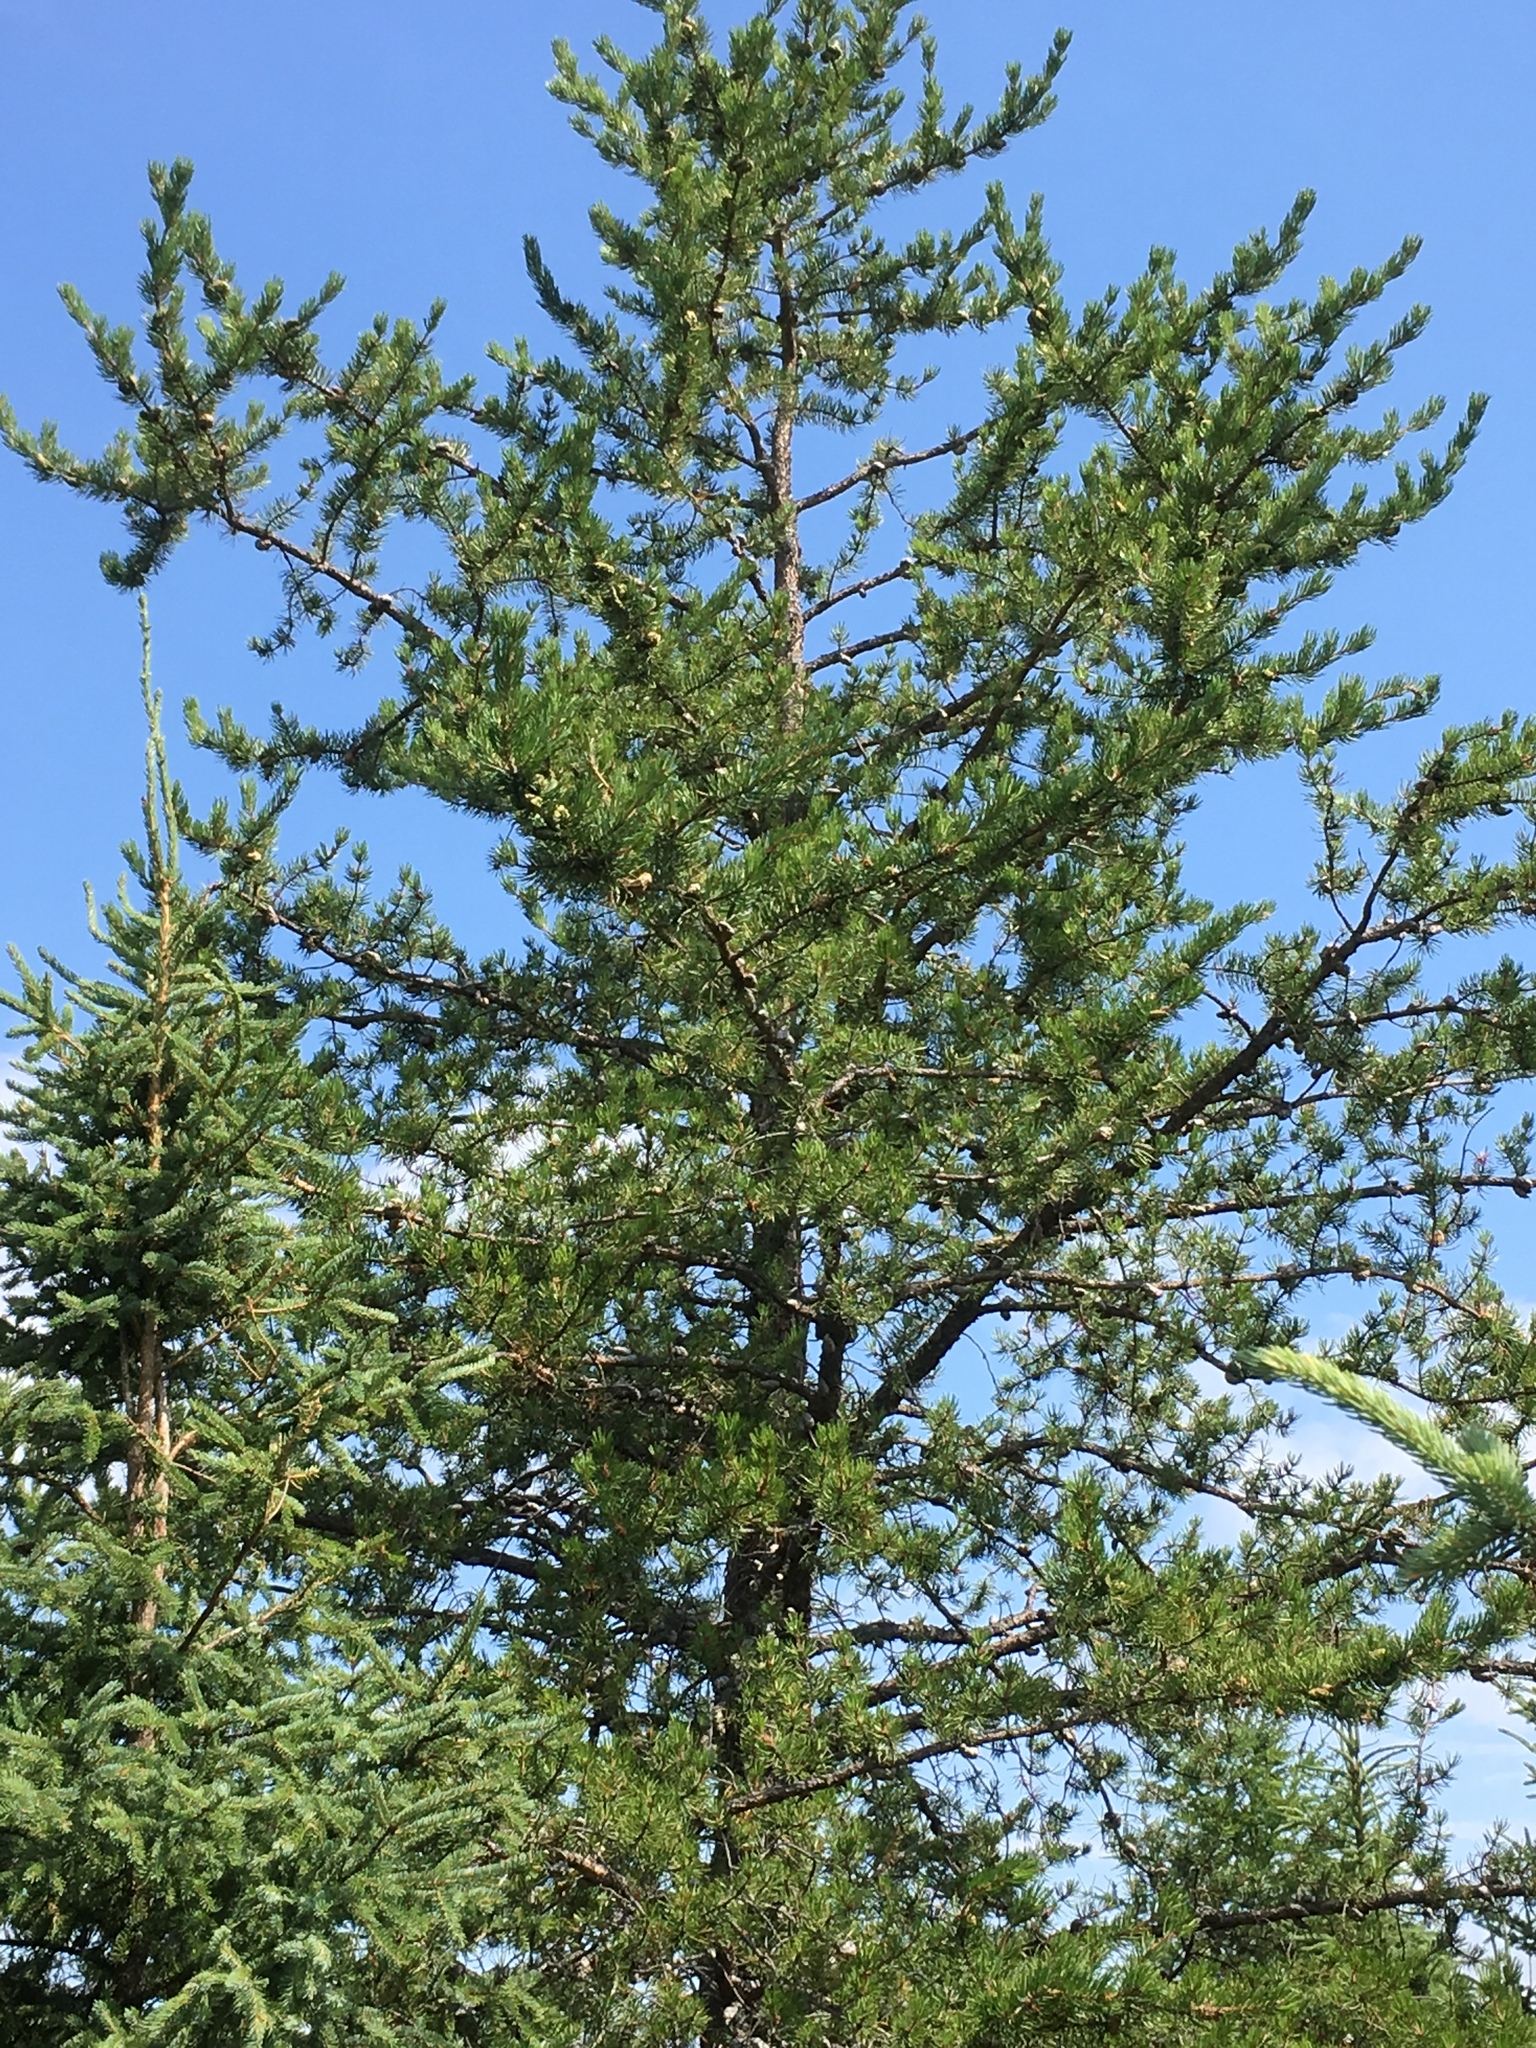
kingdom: Plantae
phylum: Tracheophyta
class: Pinopsida
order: Pinales
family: Pinaceae
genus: Pinus
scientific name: Pinus banksiana
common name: Jack pine
